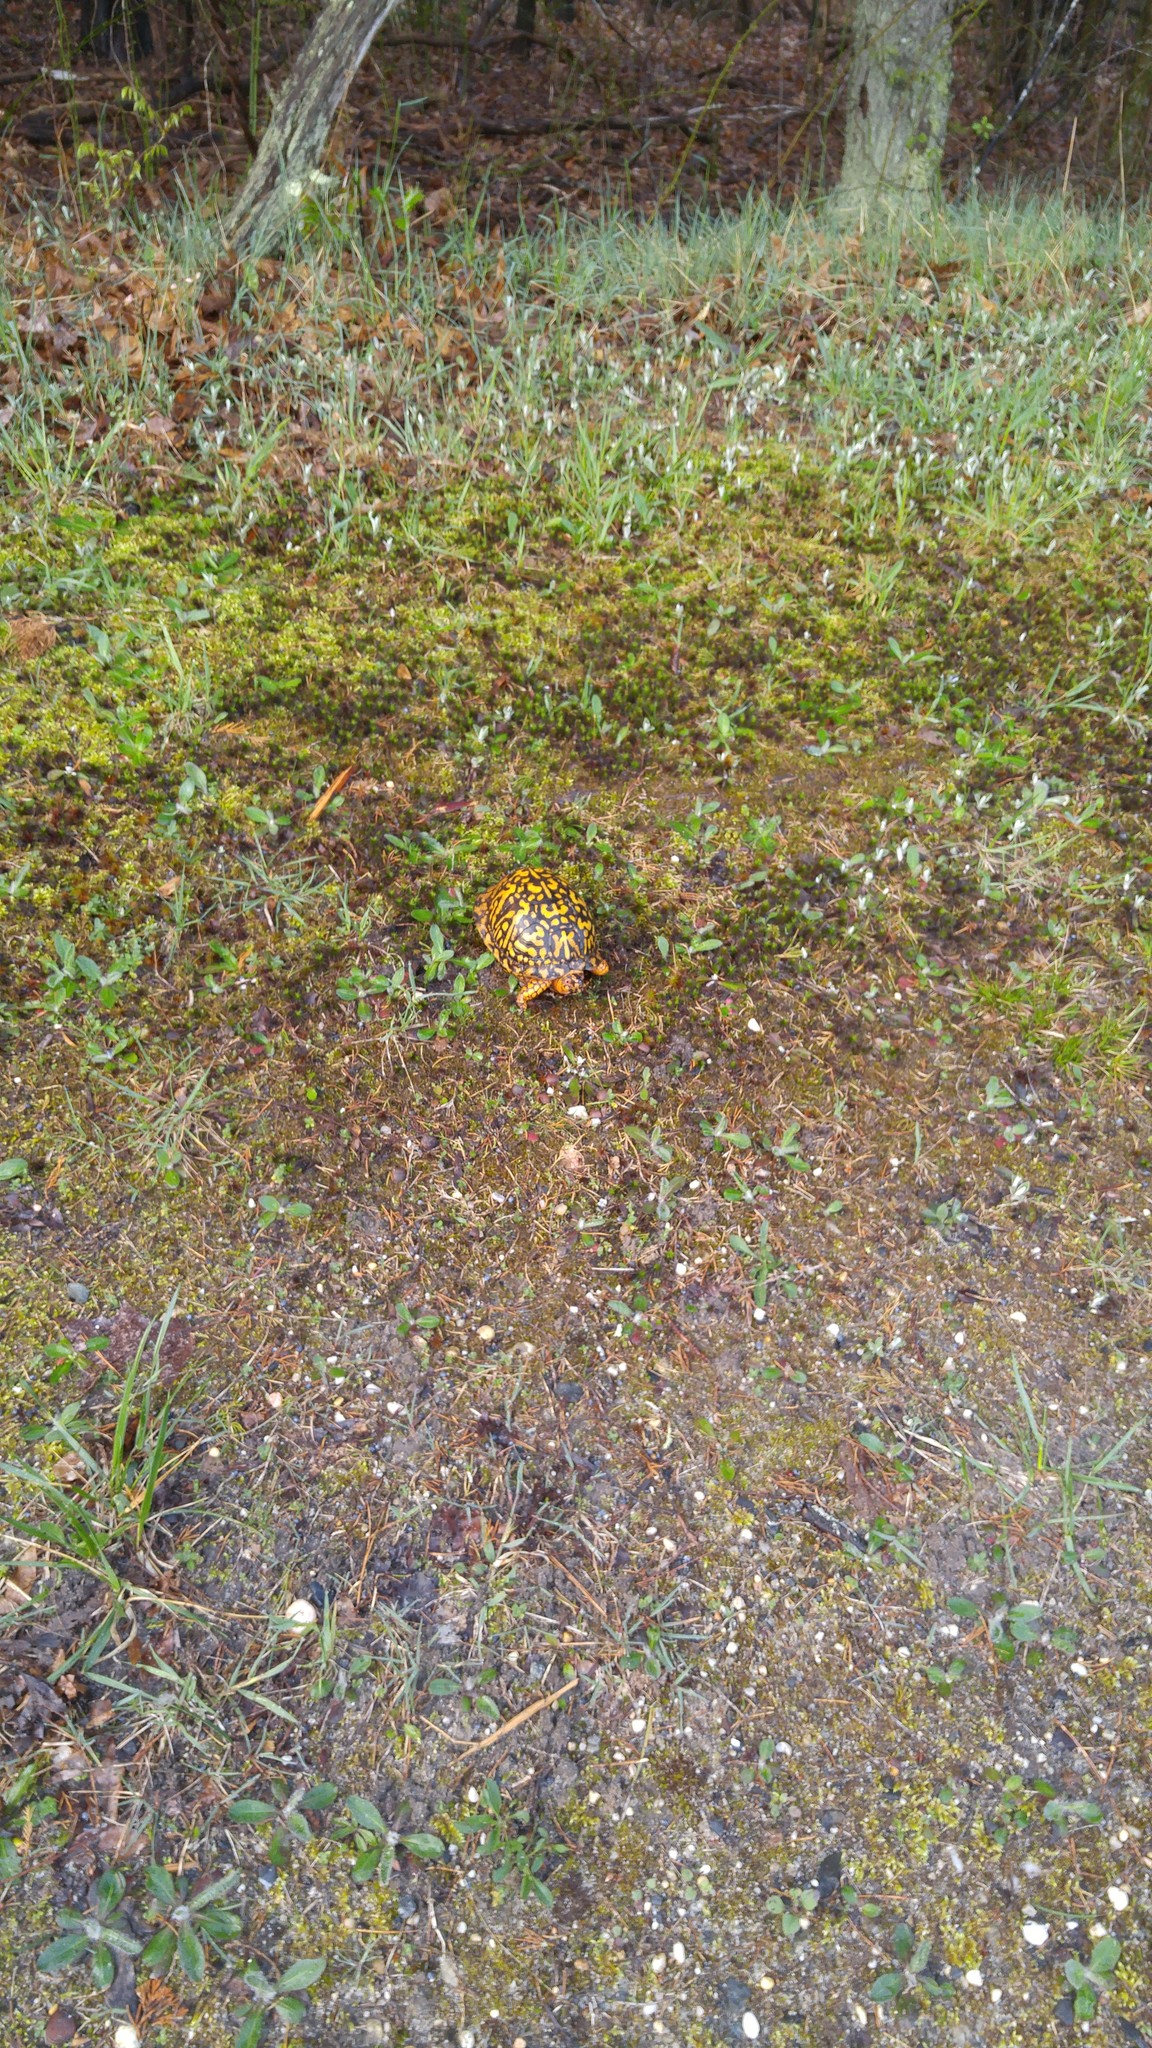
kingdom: Animalia
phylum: Chordata
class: Testudines
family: Emydidae
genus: Terrapene
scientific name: Terrapene carolina
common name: Common box turtle
